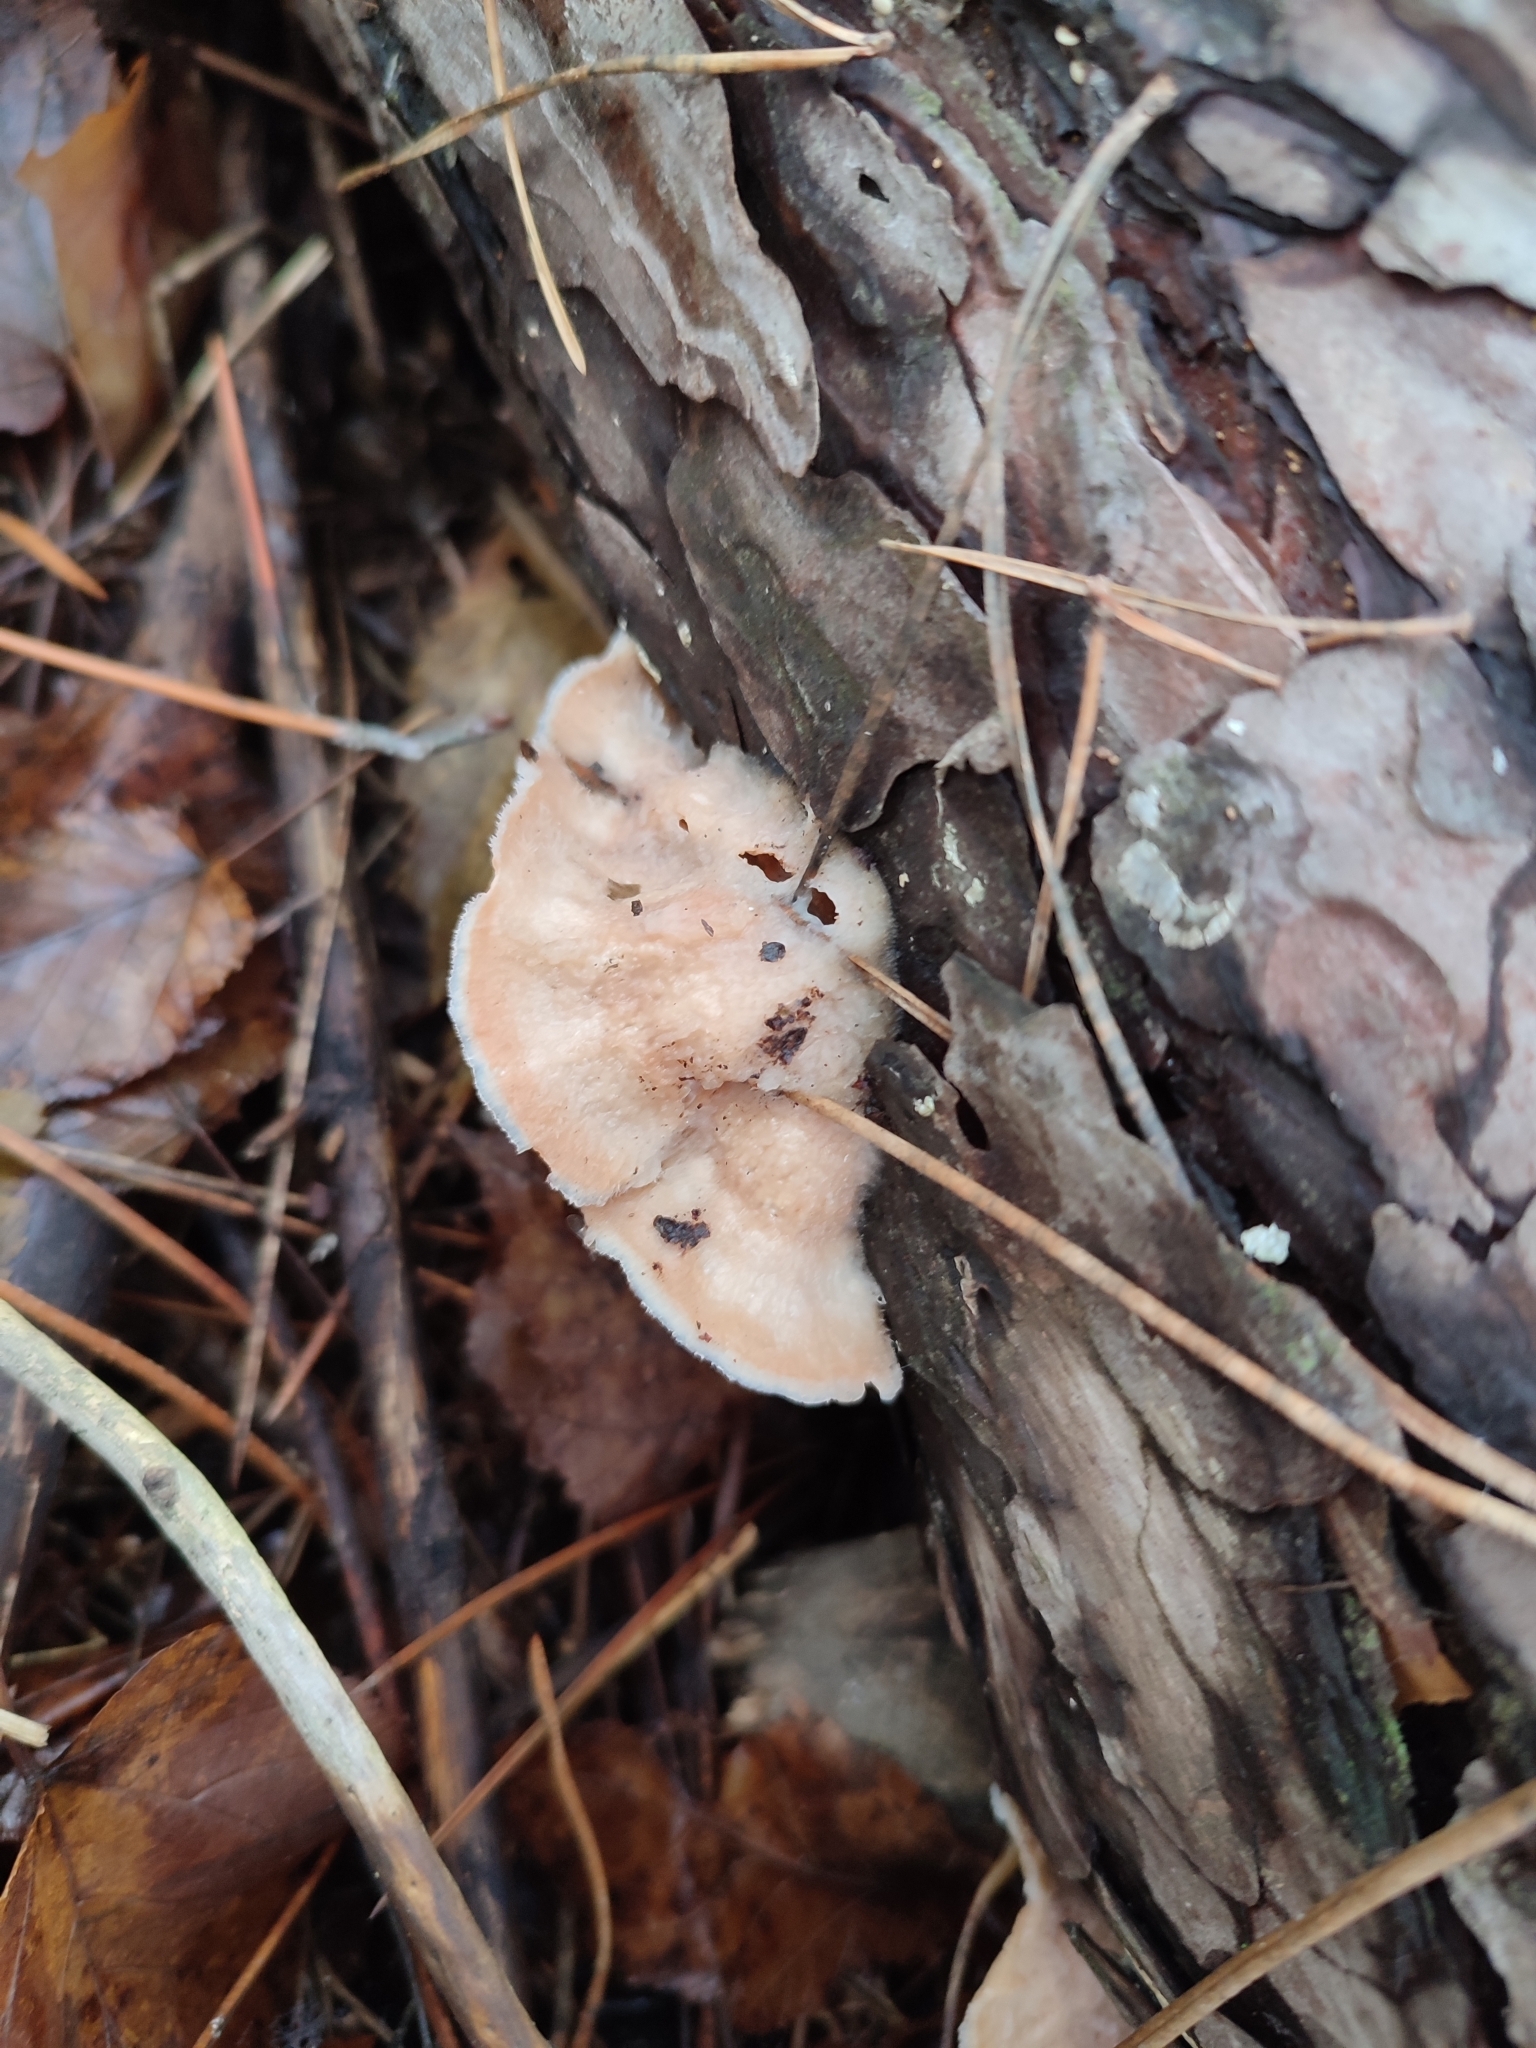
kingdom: Fungi
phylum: Basidiomycota
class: Agaricomycetes
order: Polyporales
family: Meruliaceae
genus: Phlebia
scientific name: Phlebia tremellosa
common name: Jelly rot
